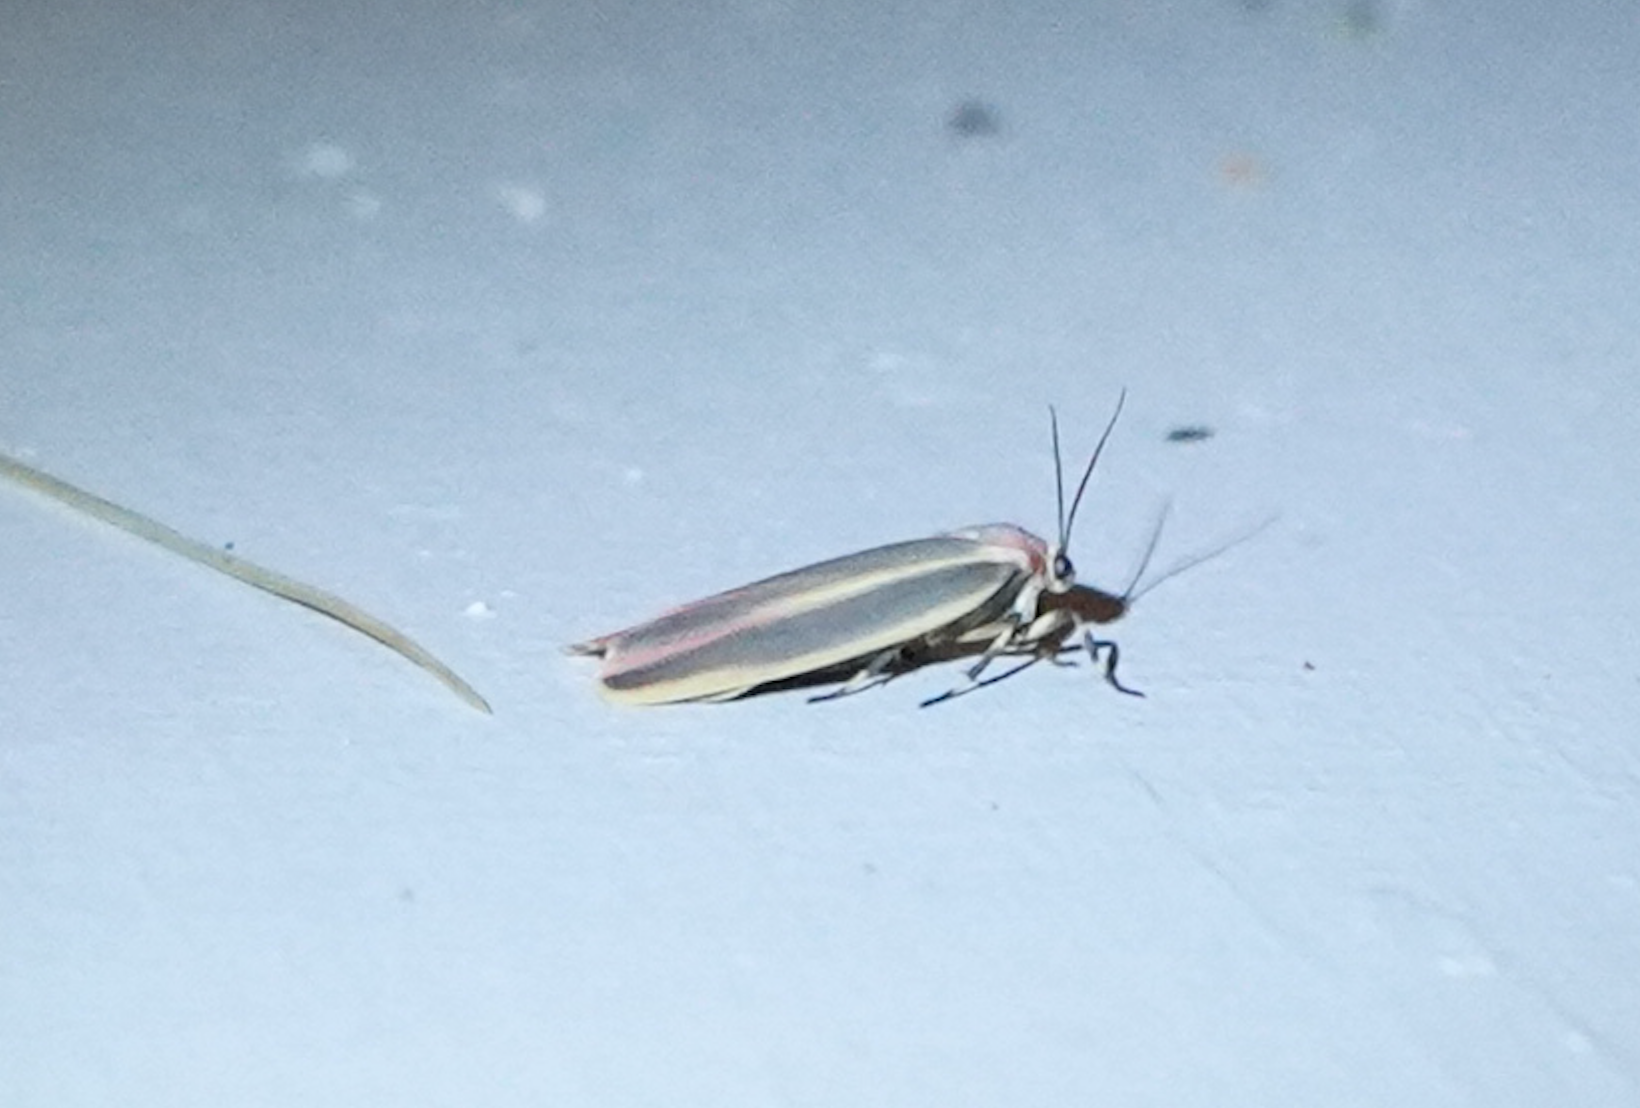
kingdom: Animalia
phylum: Arthropoda
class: Insecta
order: Lepidoptera
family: Erebidae
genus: Hypoprepia
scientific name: Hypoprepia fucosa
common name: Painted lichen moth
